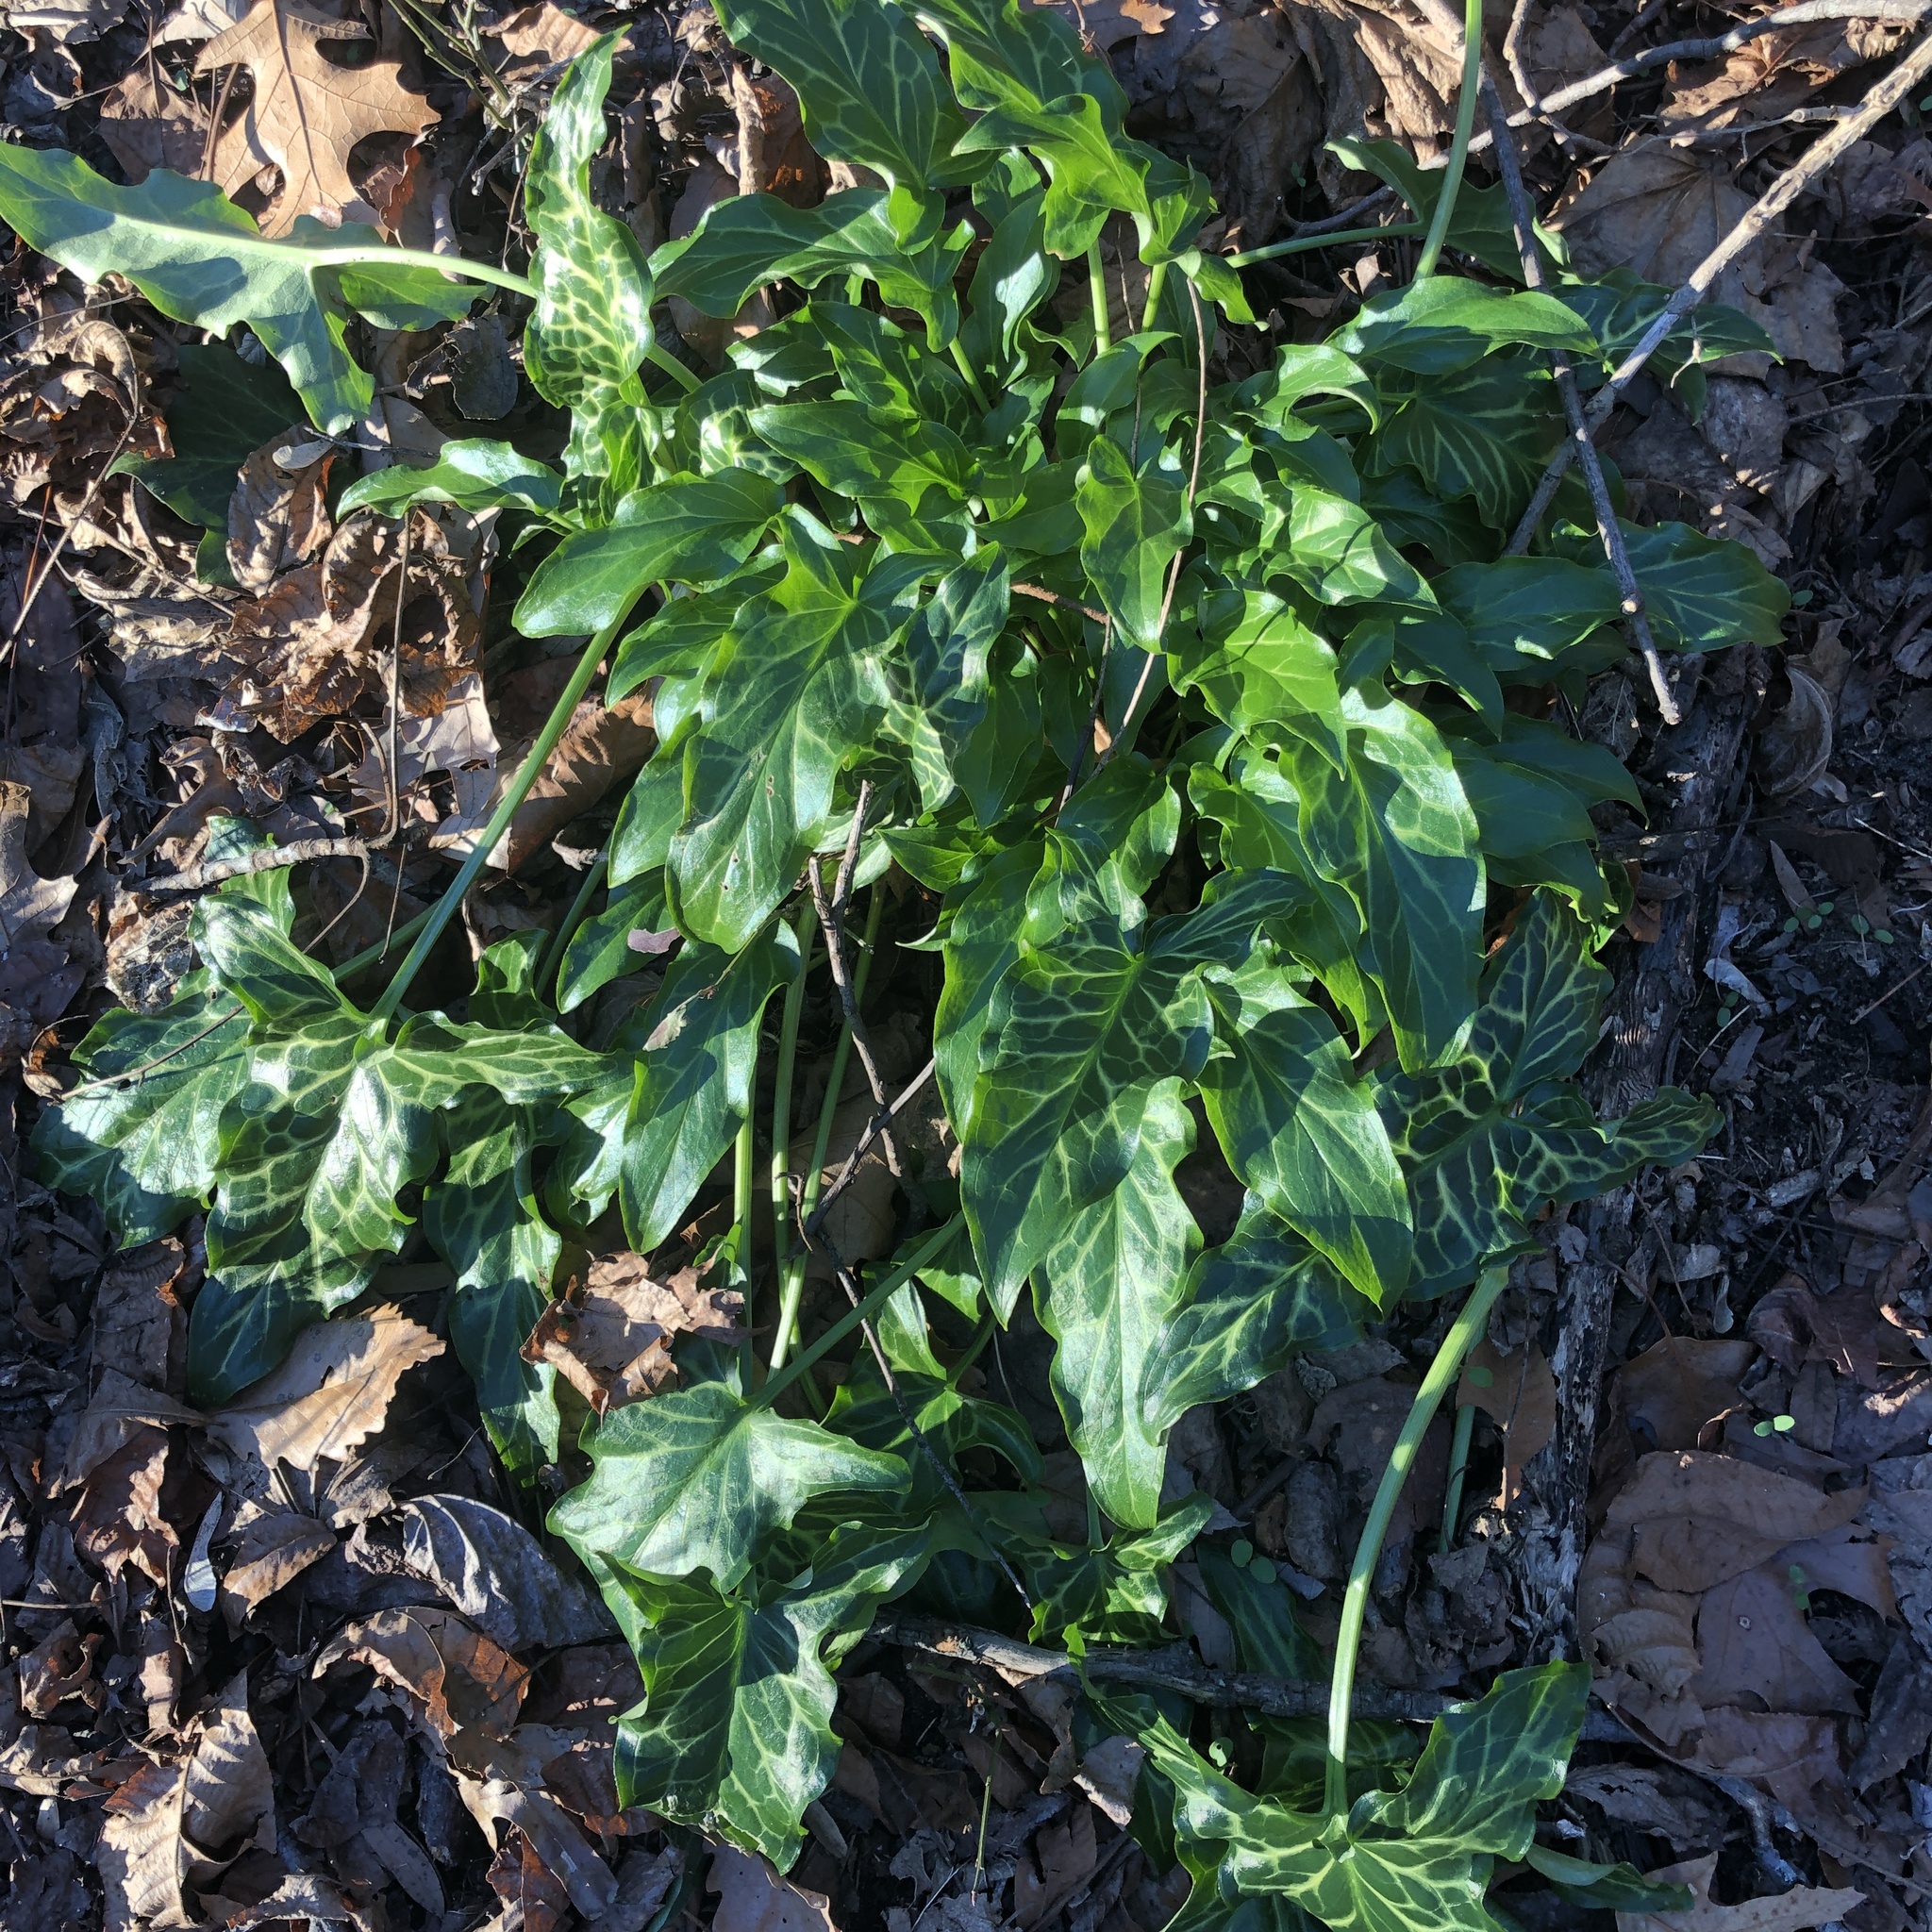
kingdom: Plantae
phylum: Tracheophyta
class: Liliopsida
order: Alismatales
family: Araceae
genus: Arum
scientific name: Arum italicum
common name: Italian lords-and-ladies
